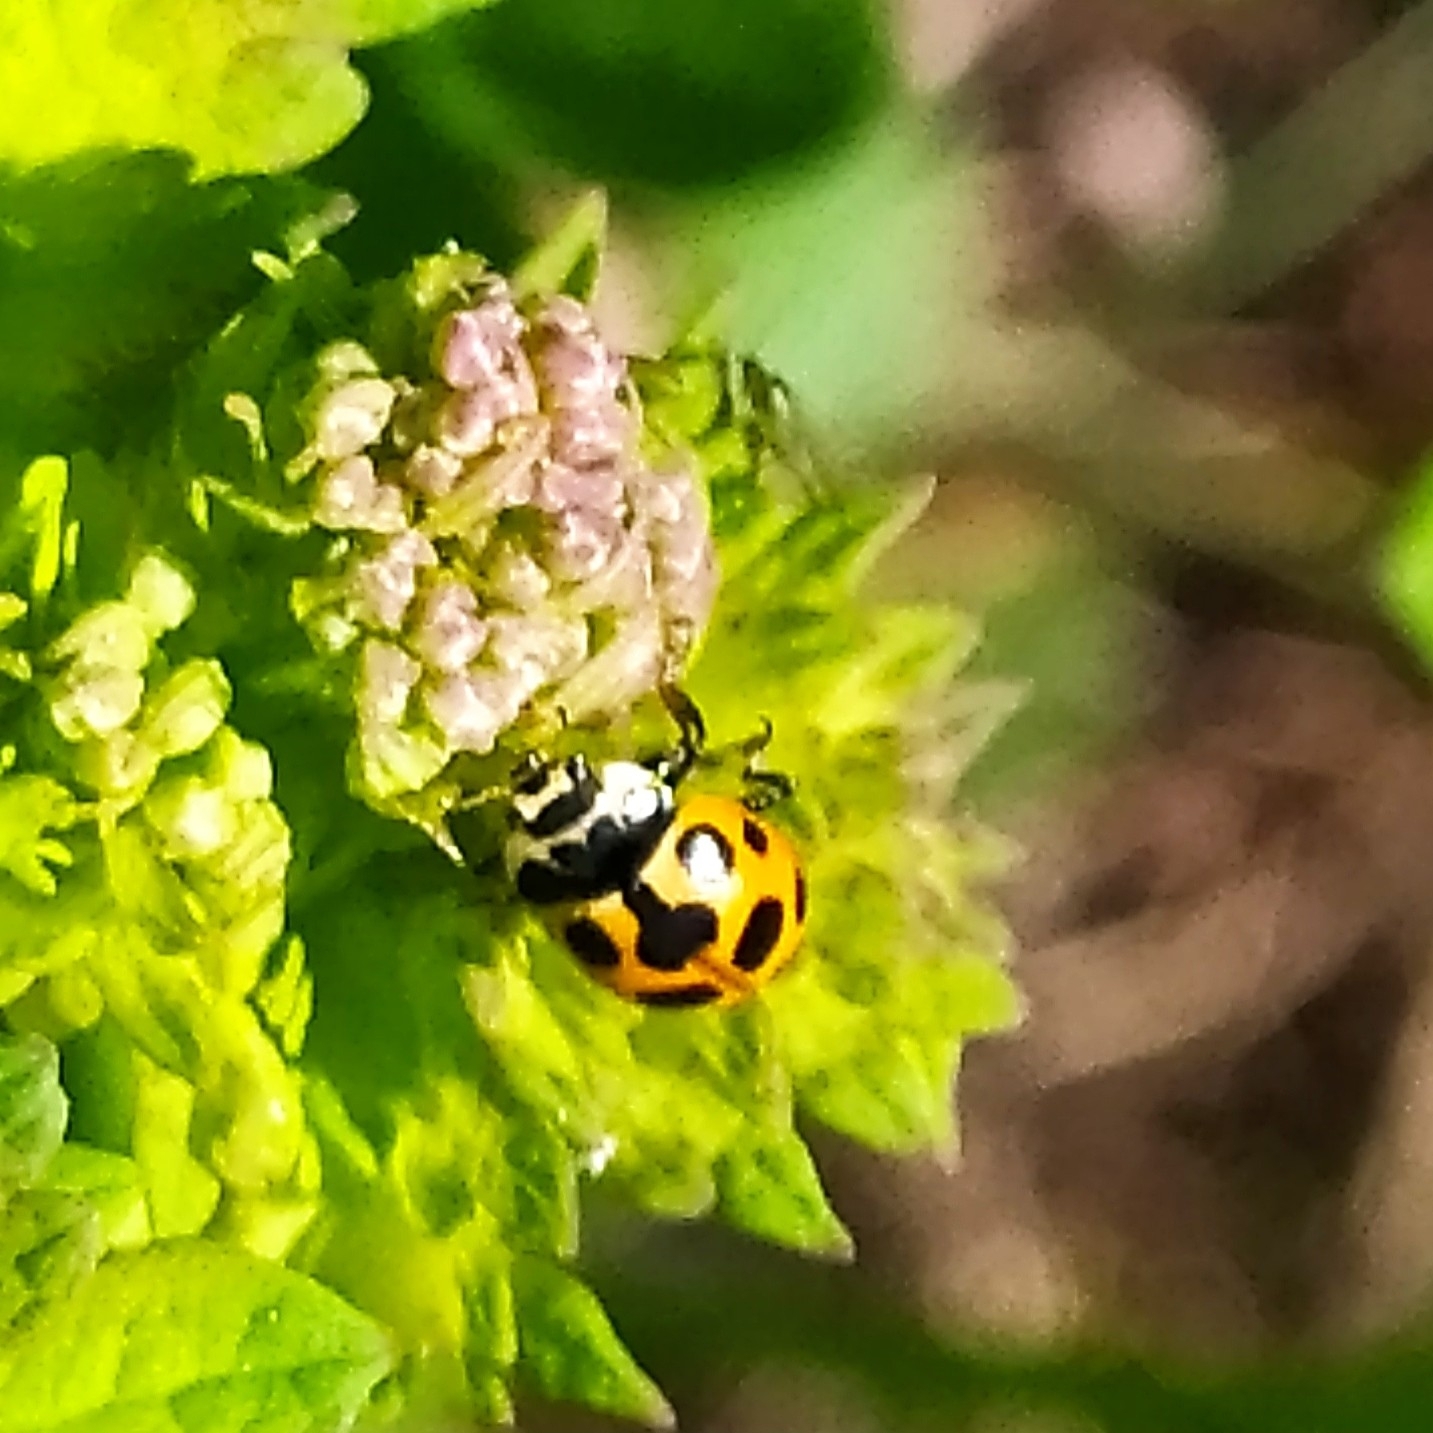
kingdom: Animalia
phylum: Arthropoda
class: Insecta
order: Coleoptera
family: Coccinellidae
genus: Ceratomegilla
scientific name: Ceratomegilla notata
